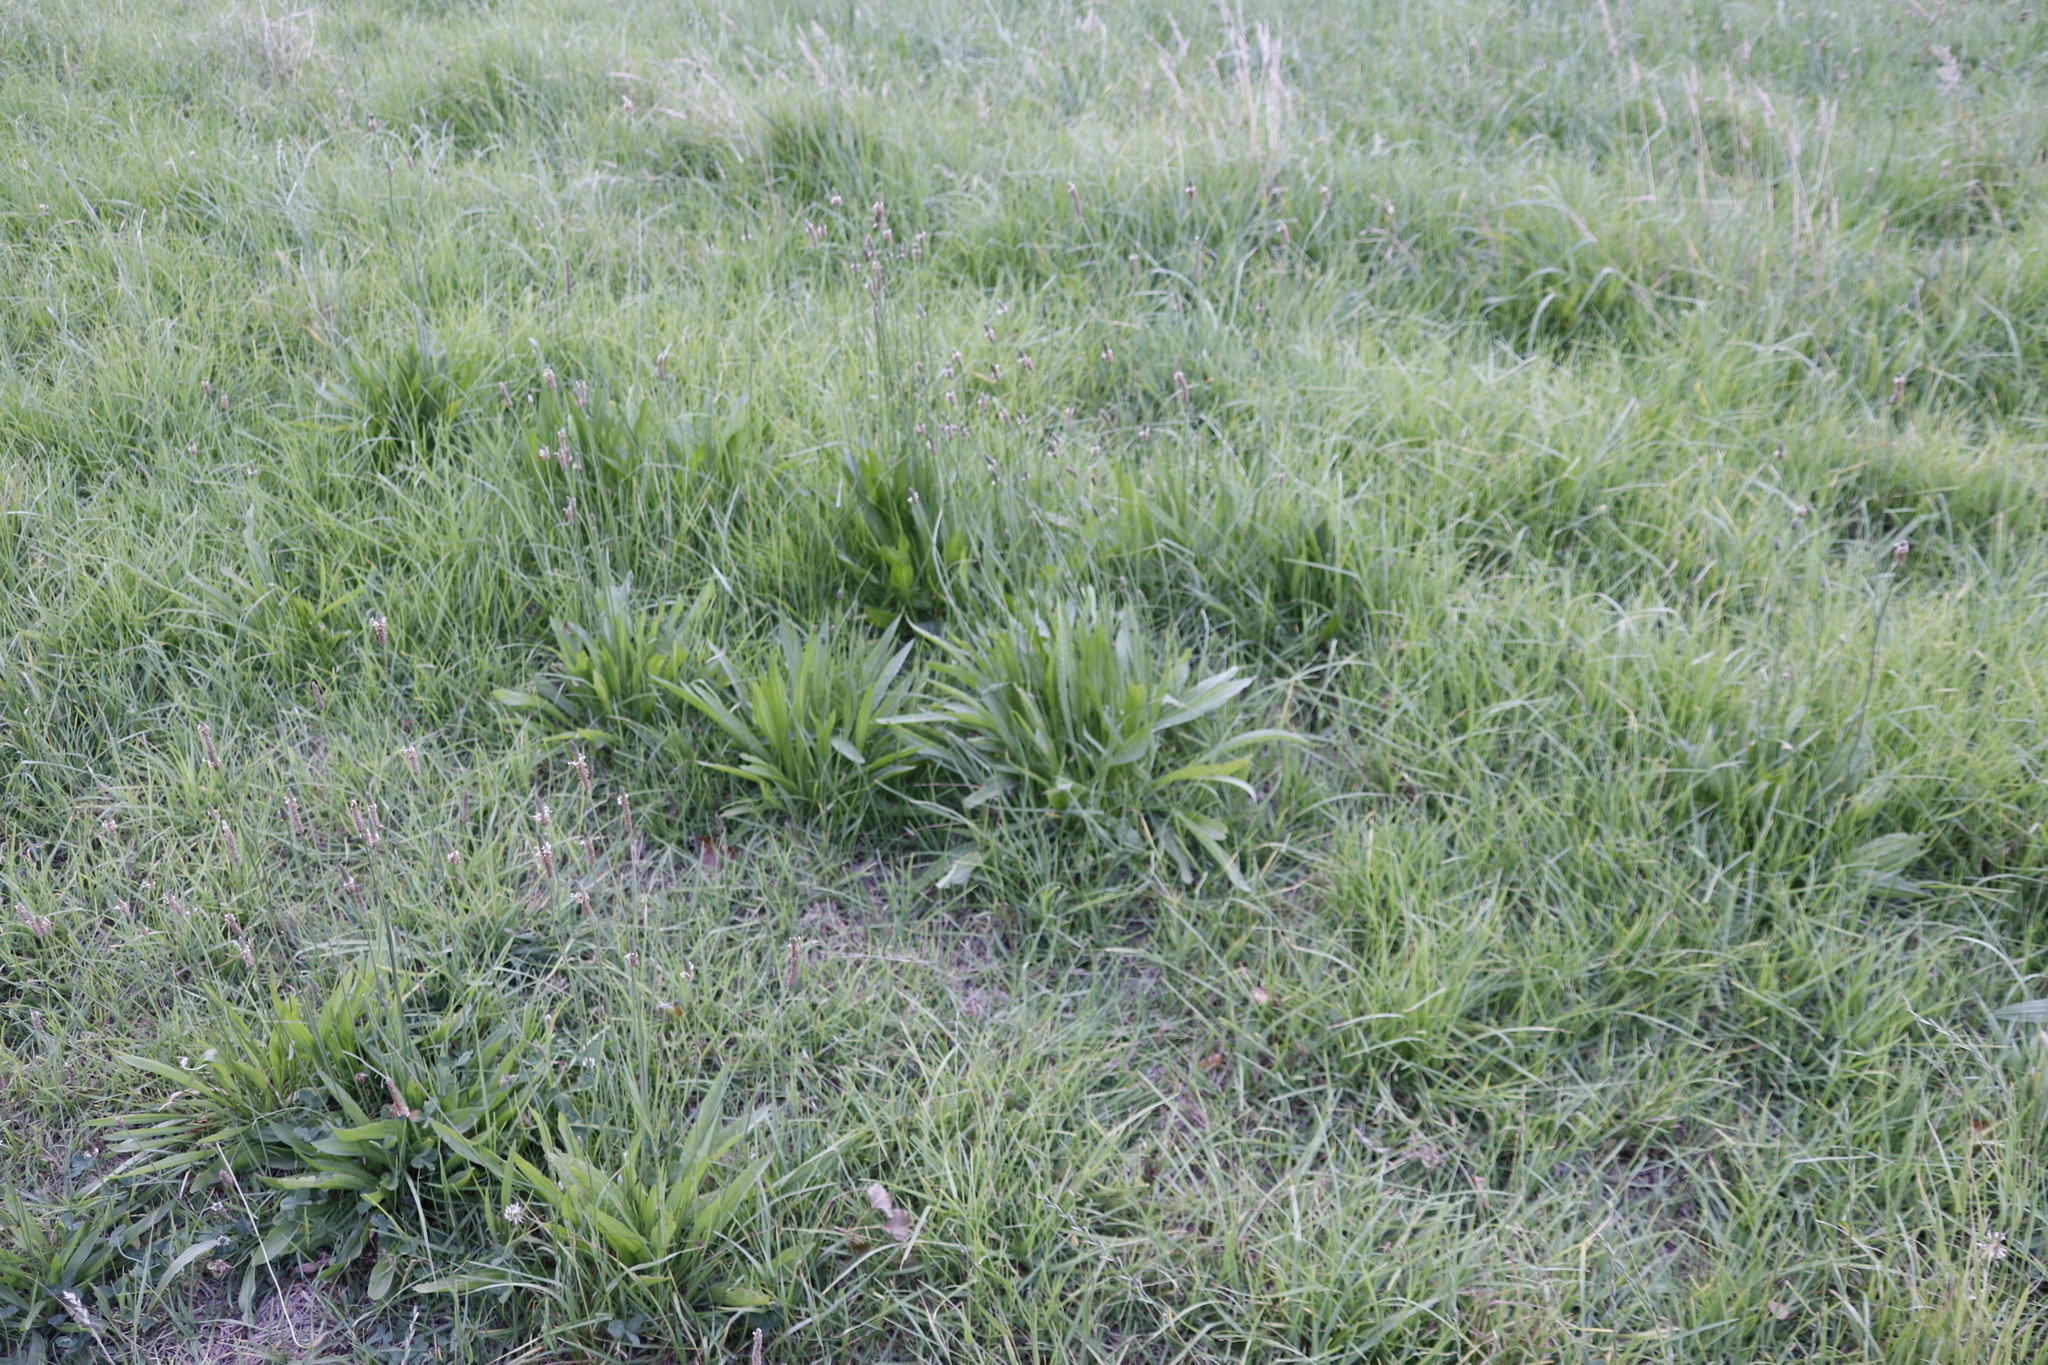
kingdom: Plantae
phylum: Tracheophyta
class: Magnoliopsida
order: Lamiales
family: Plantaginaceae
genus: Plantago
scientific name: Plantago lanceolata
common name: Ribwort plantain
